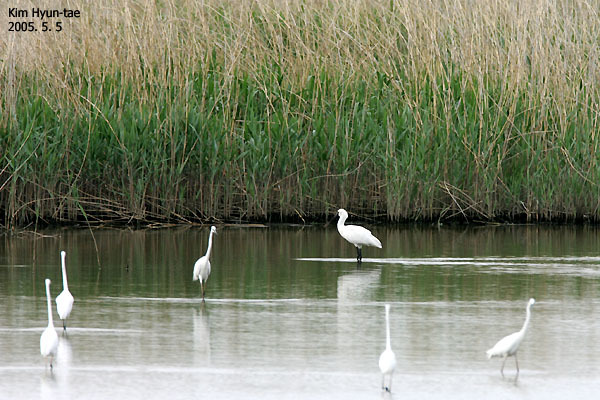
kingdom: Animalia
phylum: Chordata
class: Aves
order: Pelecaniformes
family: Threskiornithidae
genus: Platalea
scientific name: Platalea minor
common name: Black-faced spoonbill
